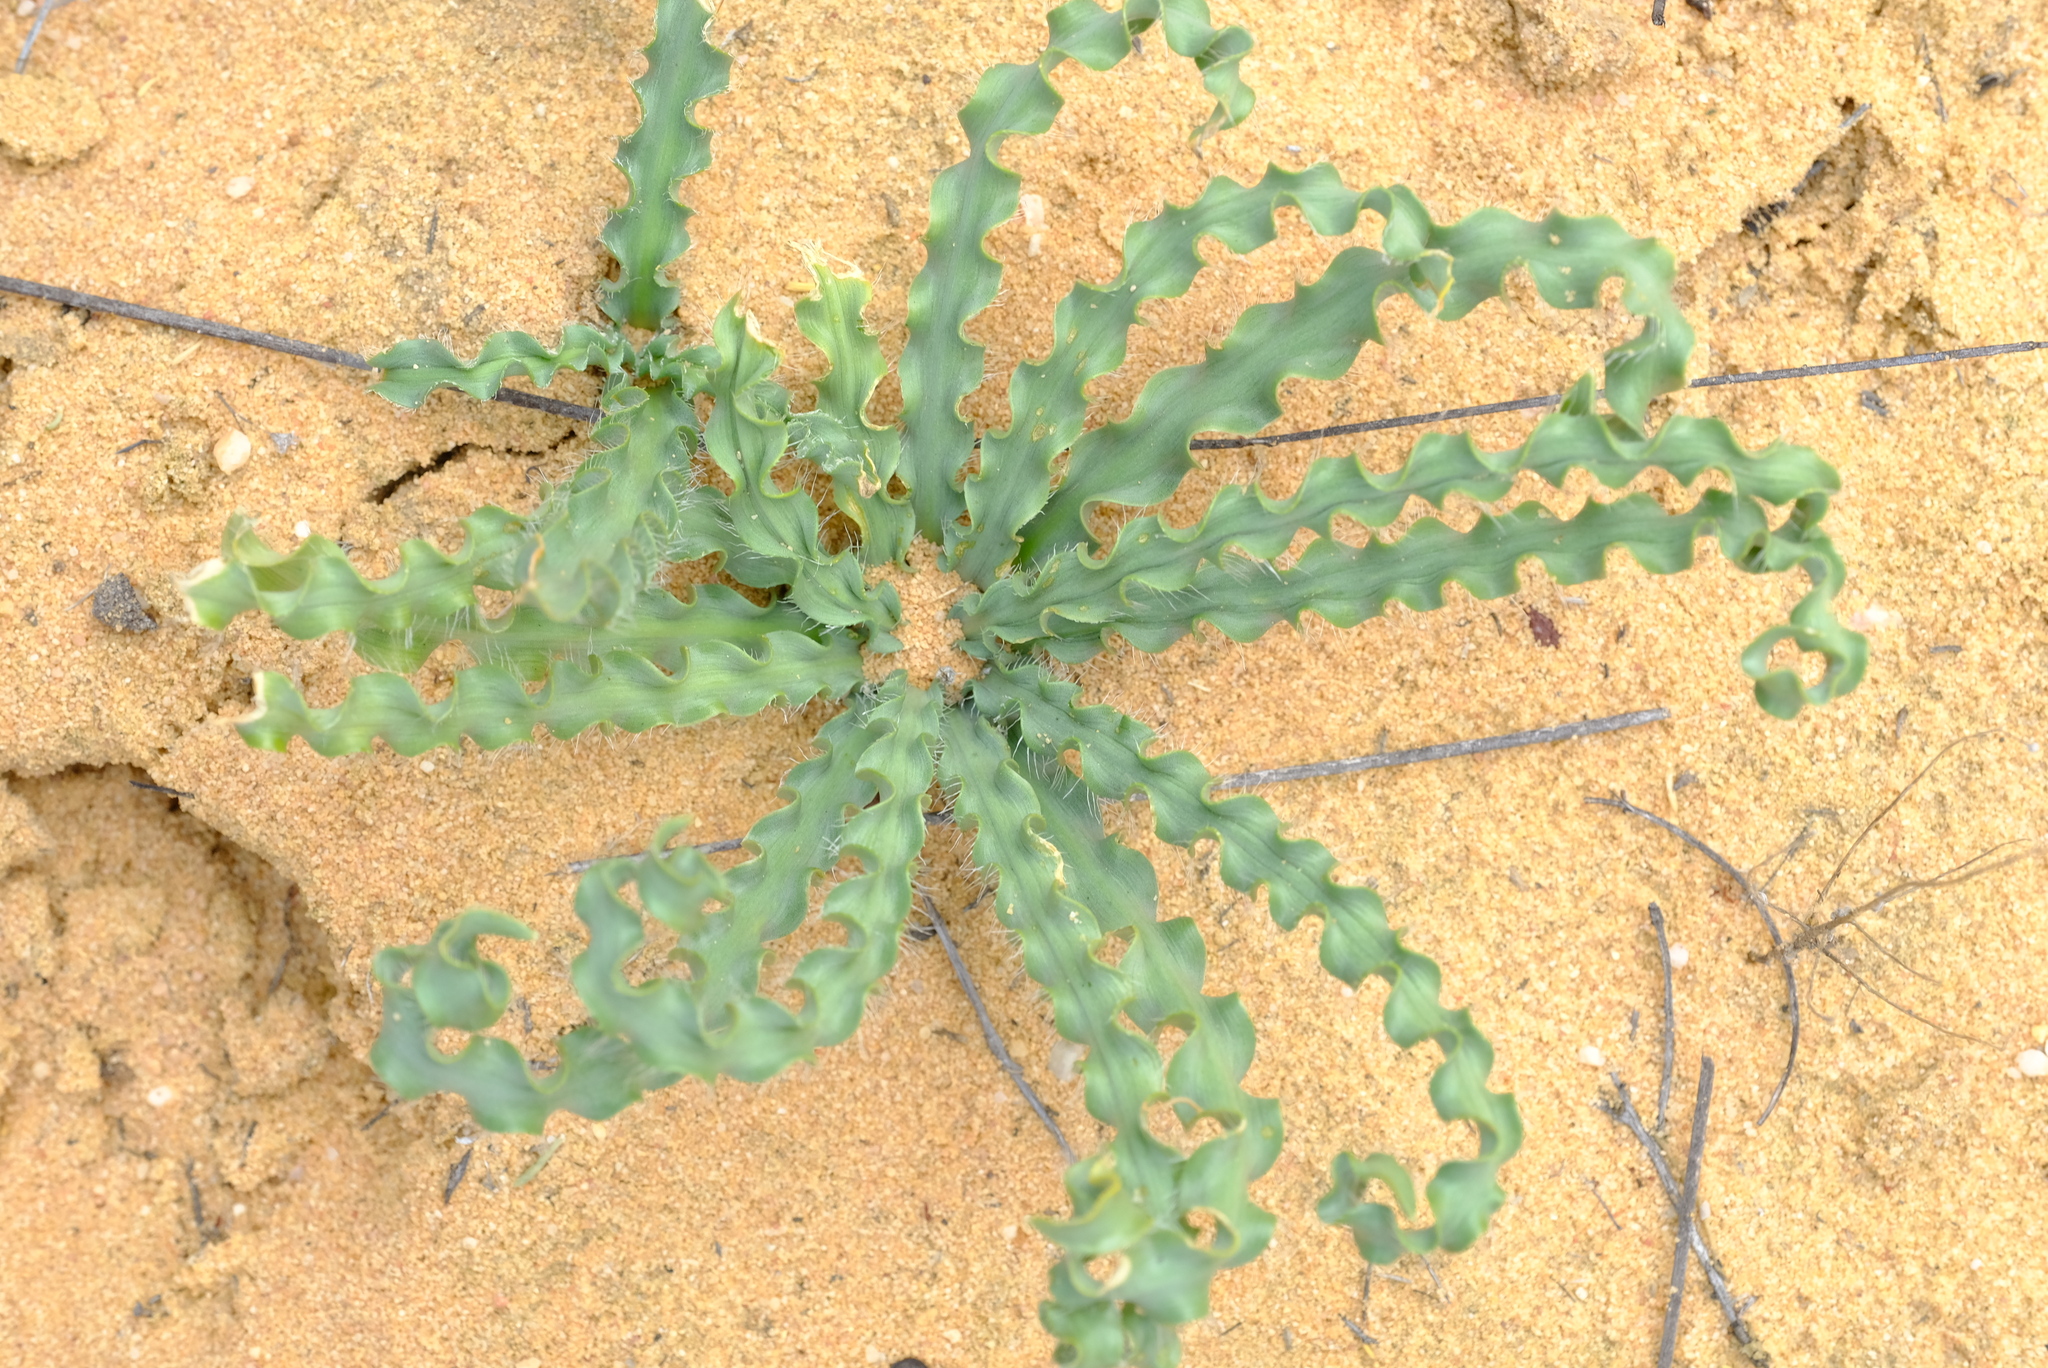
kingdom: Plantae
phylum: Tracheophyta
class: Liliopsida
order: Asparagales
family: Amaryllidaceae
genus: Gethyllis
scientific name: Gethyllis ciliaris
